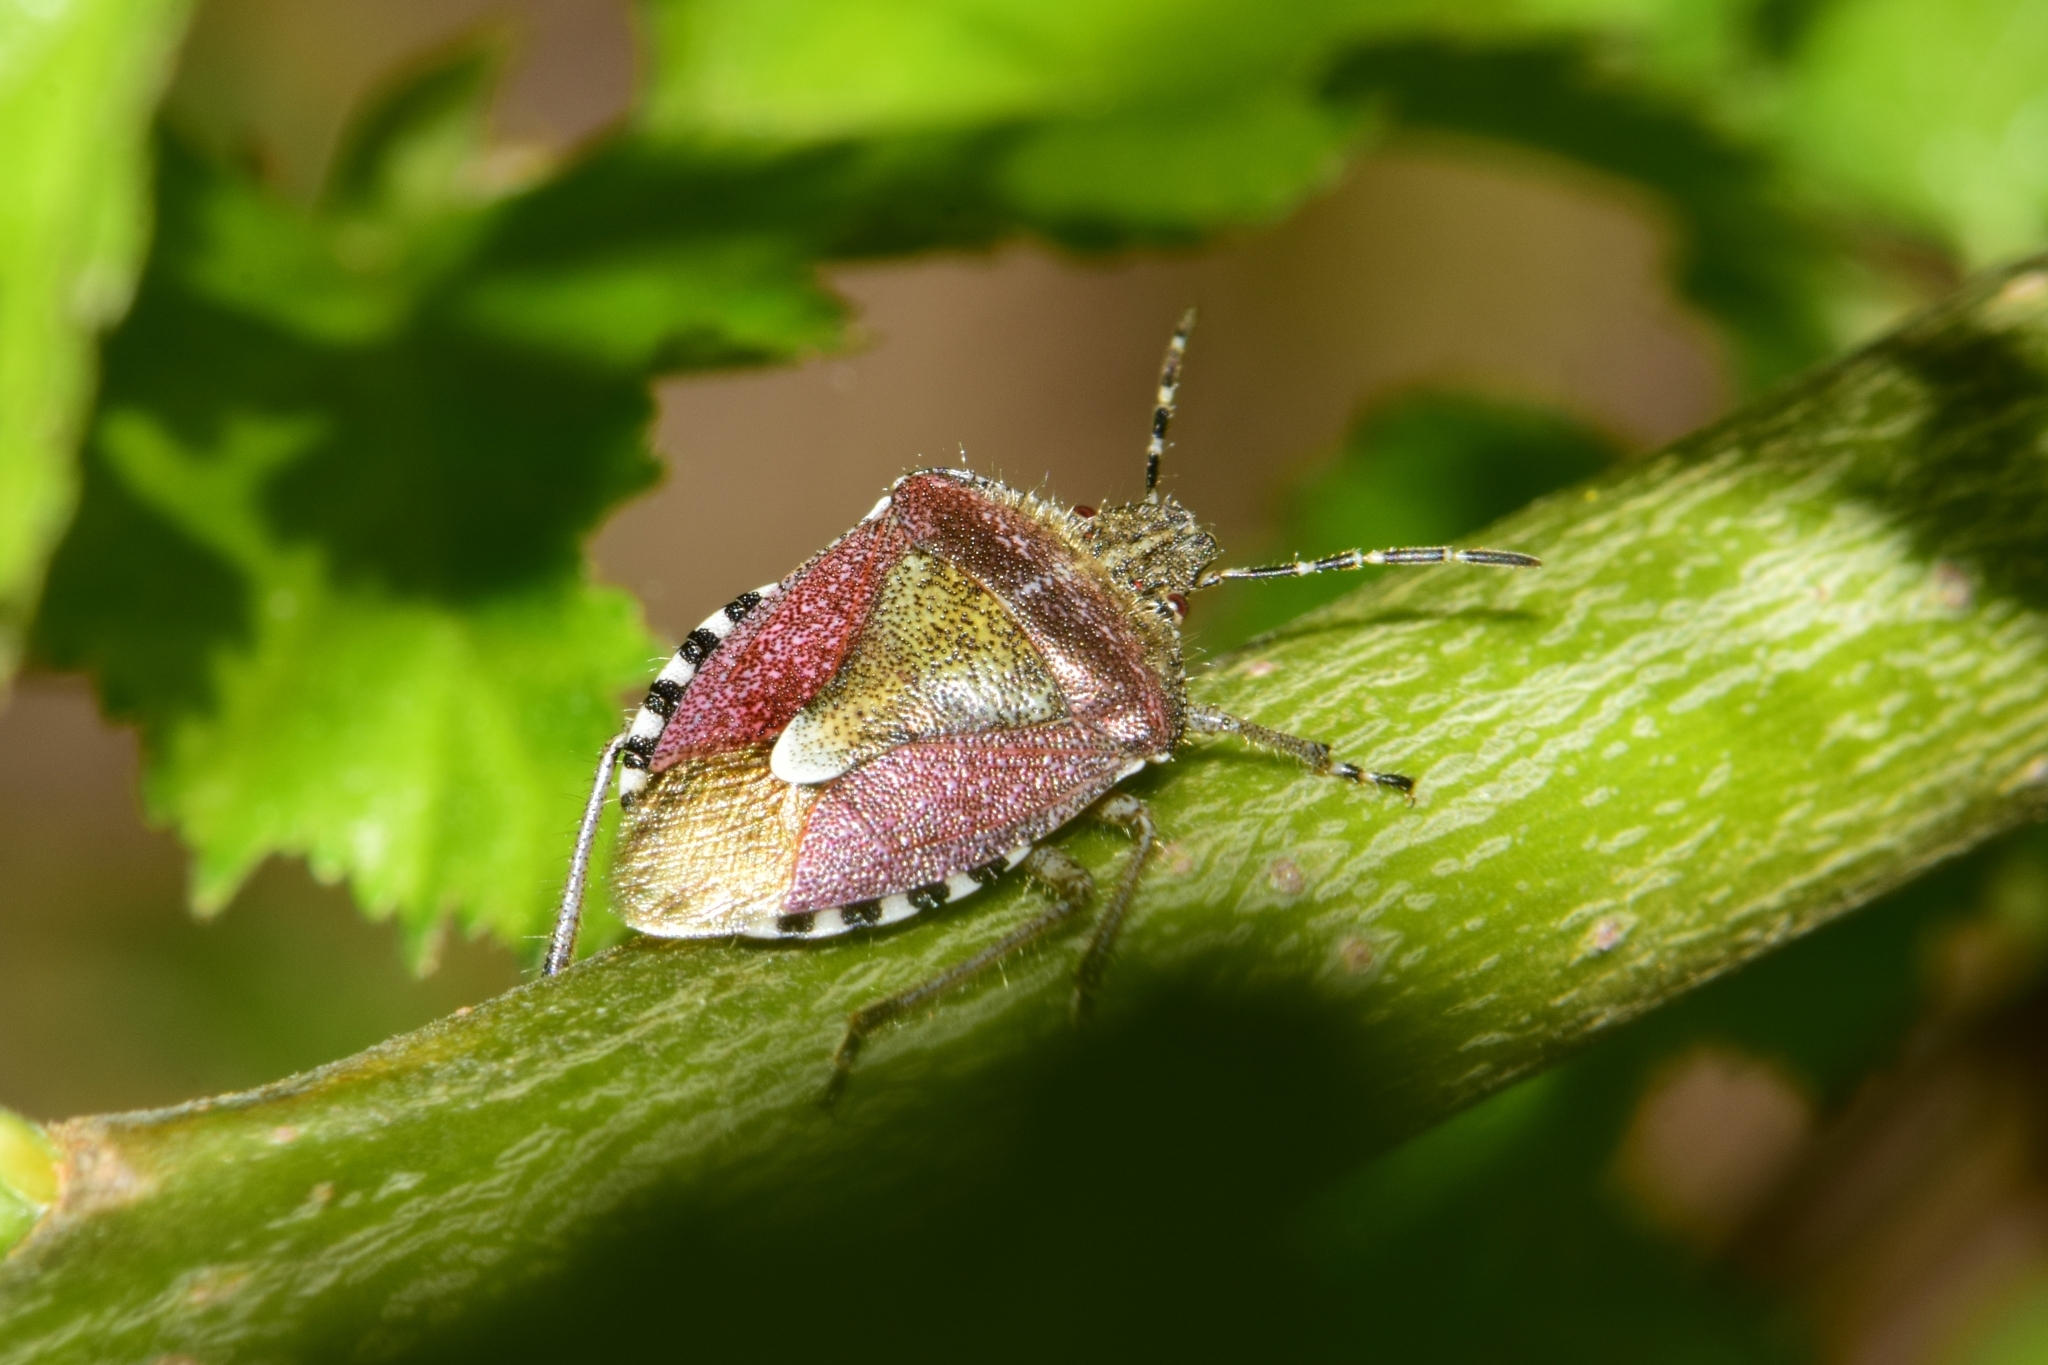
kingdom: Animalia
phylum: Arthropoda
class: Insecta
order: Hemiptera
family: Pentatomidae
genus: Dolycoris
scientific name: Dolycoris baccarum
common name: Sloe bug
